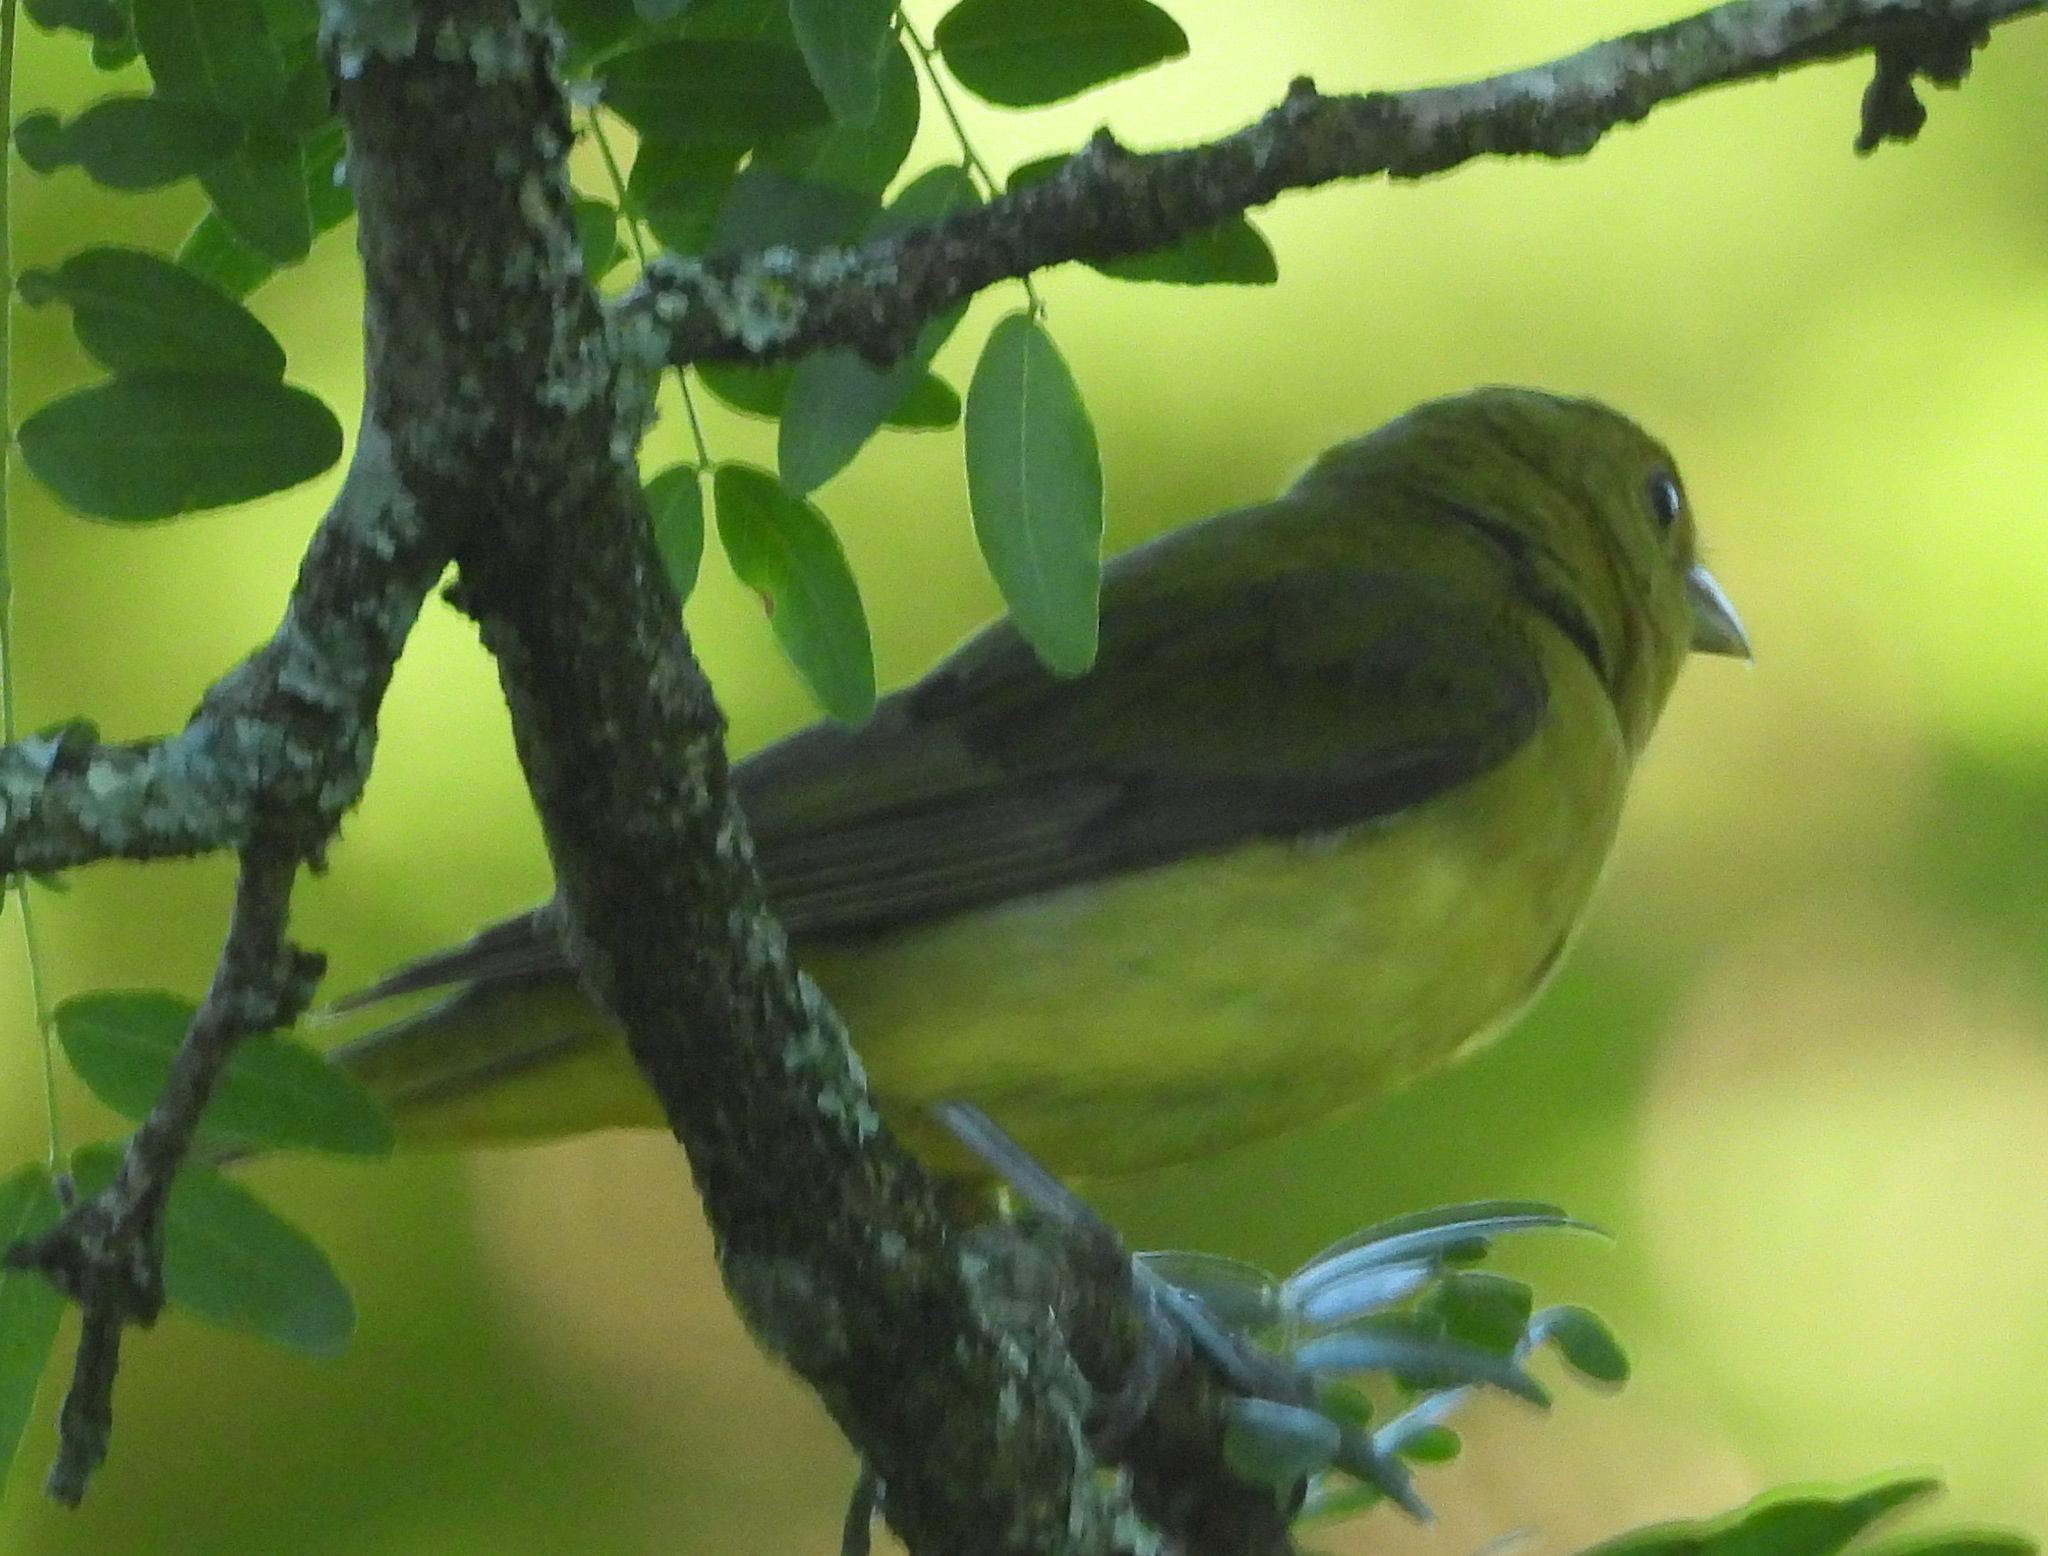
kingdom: Animalia
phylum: Chordata
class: Aves
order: Passeriformes
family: Cardinalidae
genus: Piranga
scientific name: Piranga olivacea
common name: Scarlet tanager
